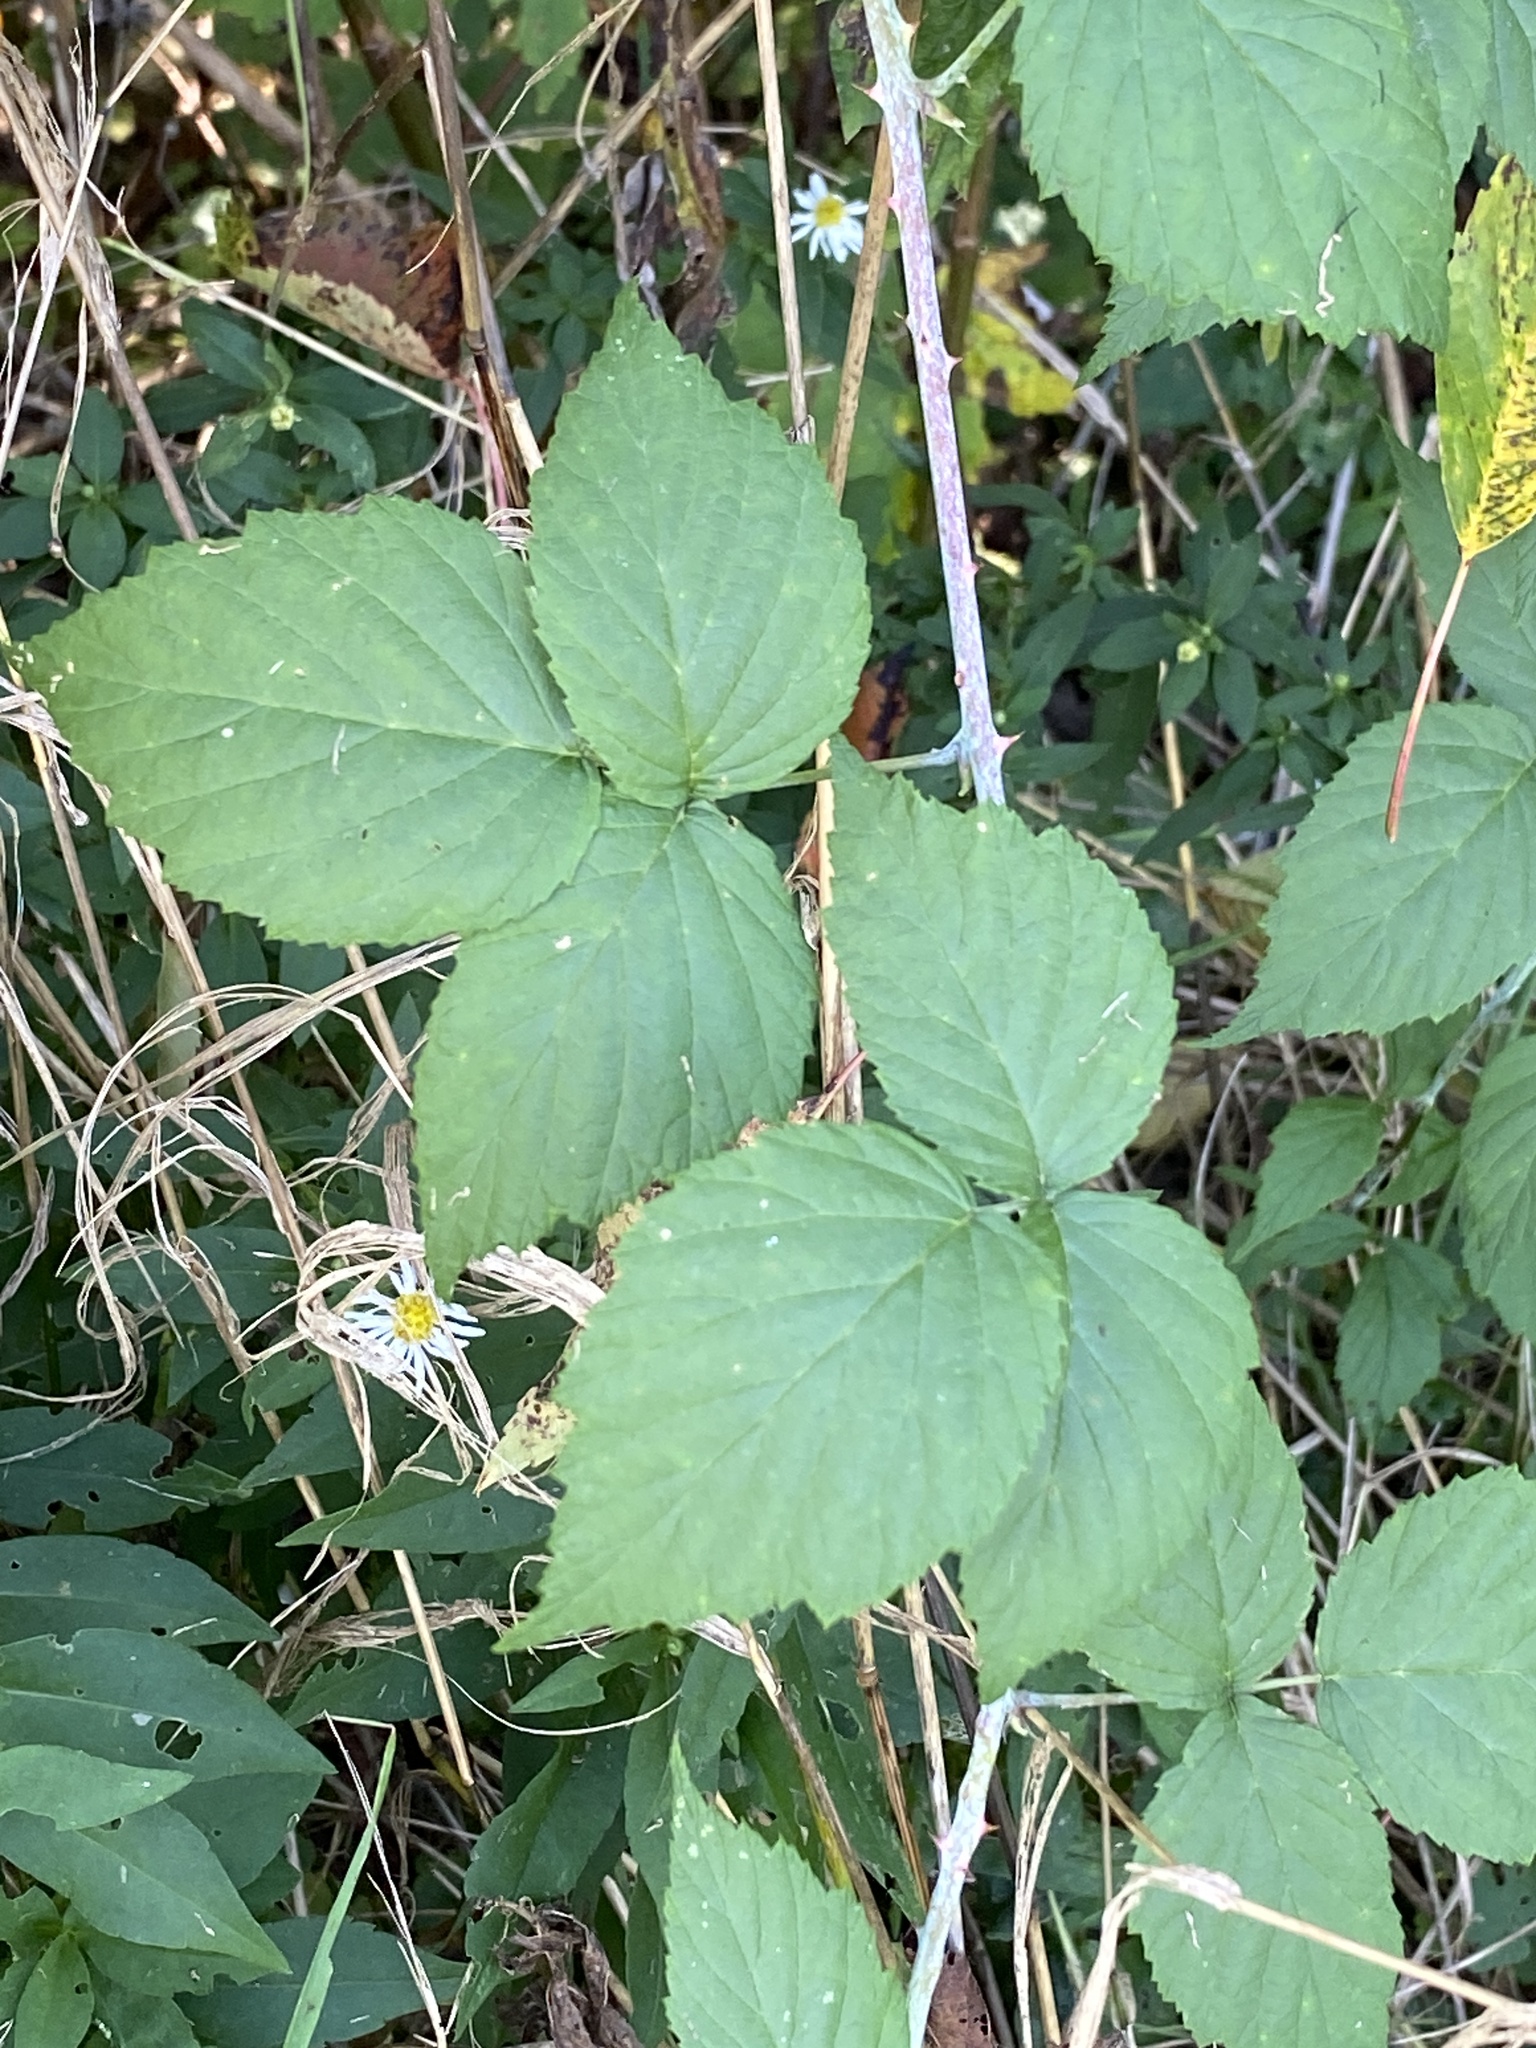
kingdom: Plantae
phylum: Tracheophyta
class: Magnoliopsida
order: Rosales
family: Rosaceae
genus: Rubus
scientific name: Rubus occidentalis
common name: Black raspberry
